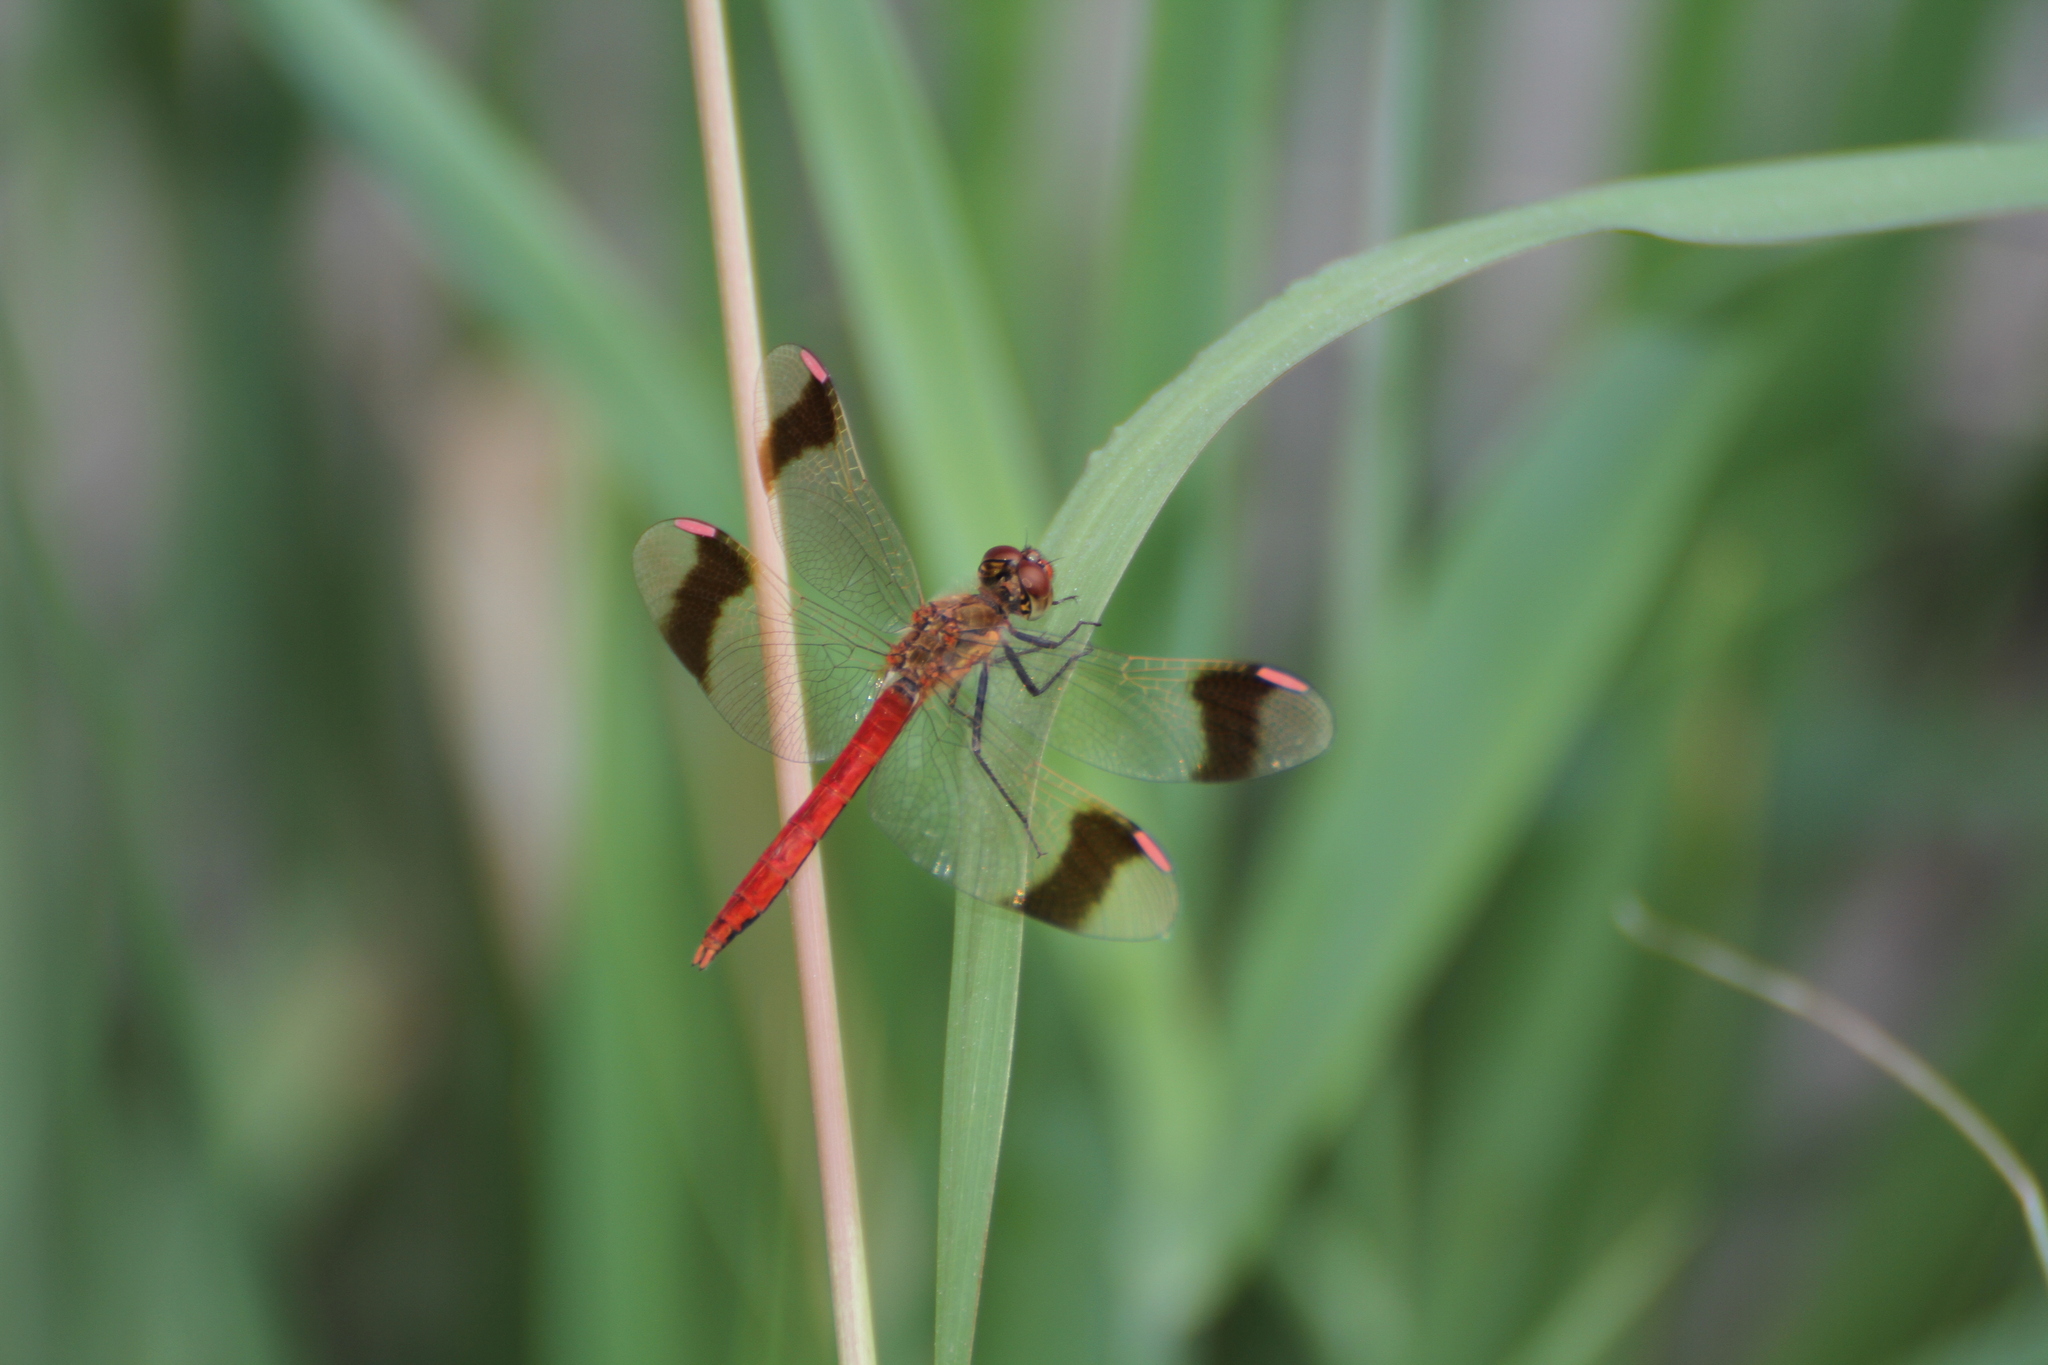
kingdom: Animalia
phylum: Arthropoda
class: Insecta
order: Odonata
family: Libellulidae
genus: Sympetrum
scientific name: Sympetrum pedemontanum
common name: Banded darter
